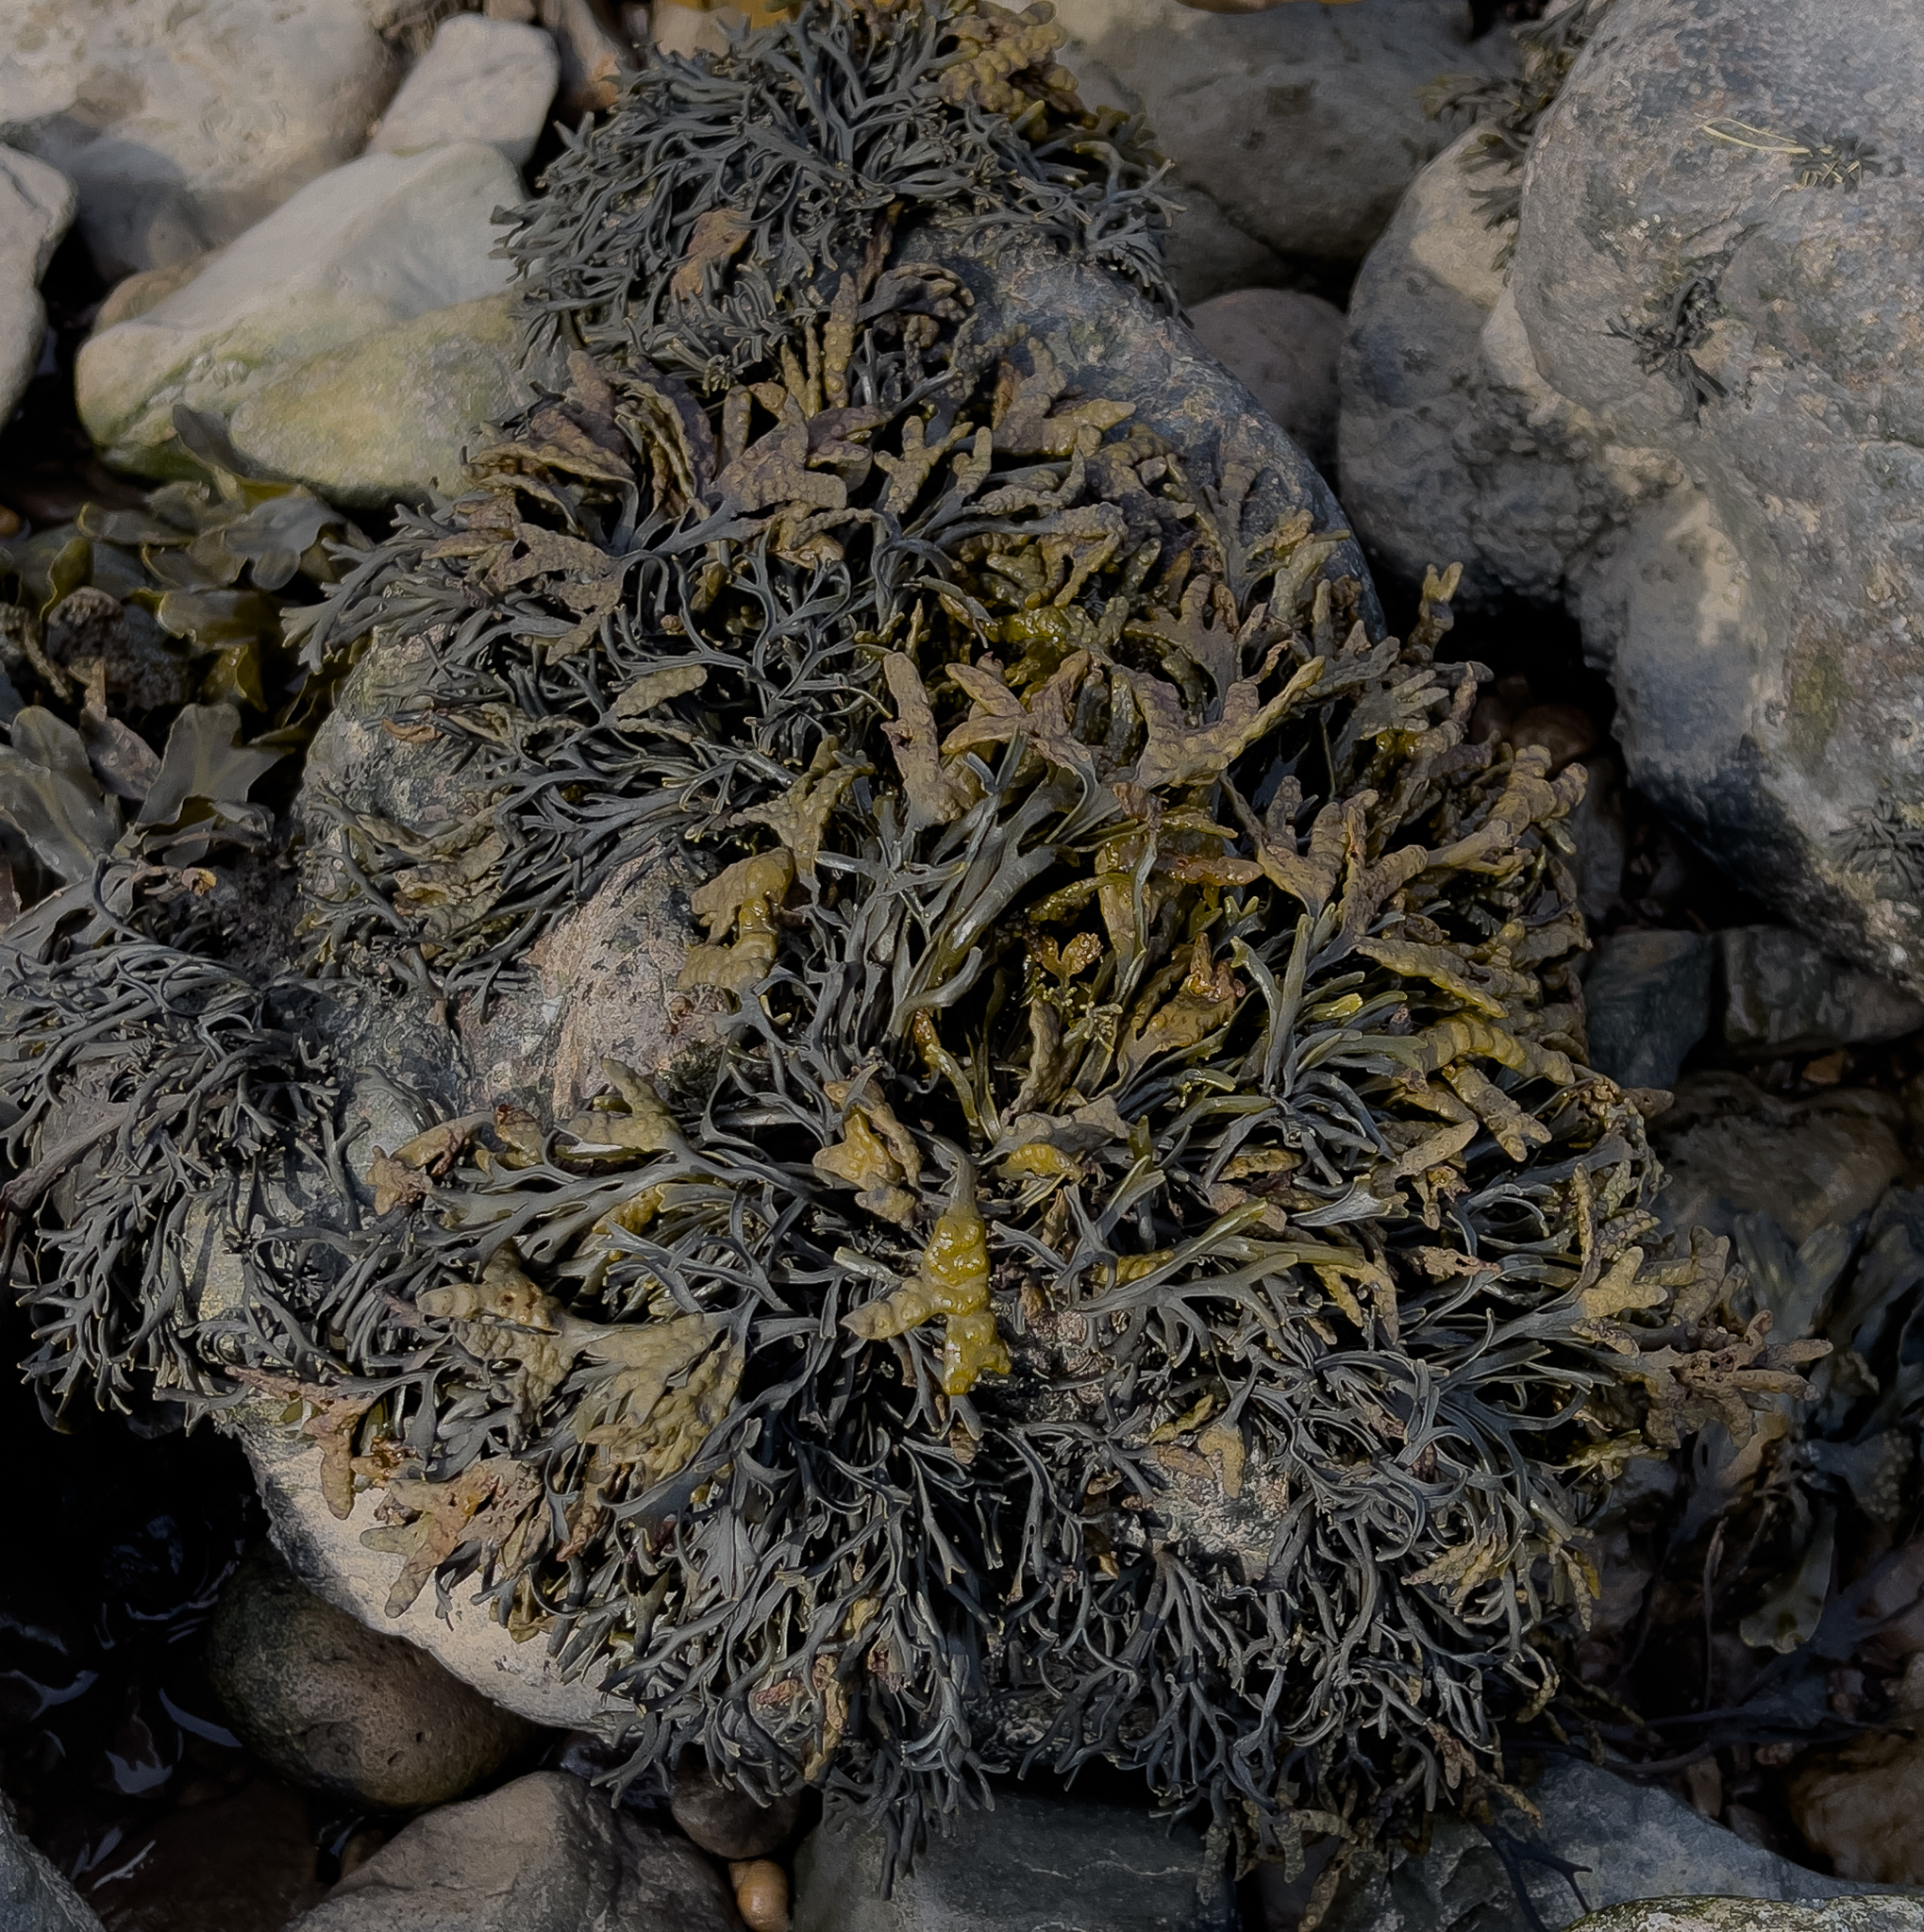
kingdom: Chromista
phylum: Ochrophyta
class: Phaeophyceae
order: Fucales
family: Fucaceae
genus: Pelvetia
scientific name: Pelvetia canaliculata
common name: Channelled wrack
